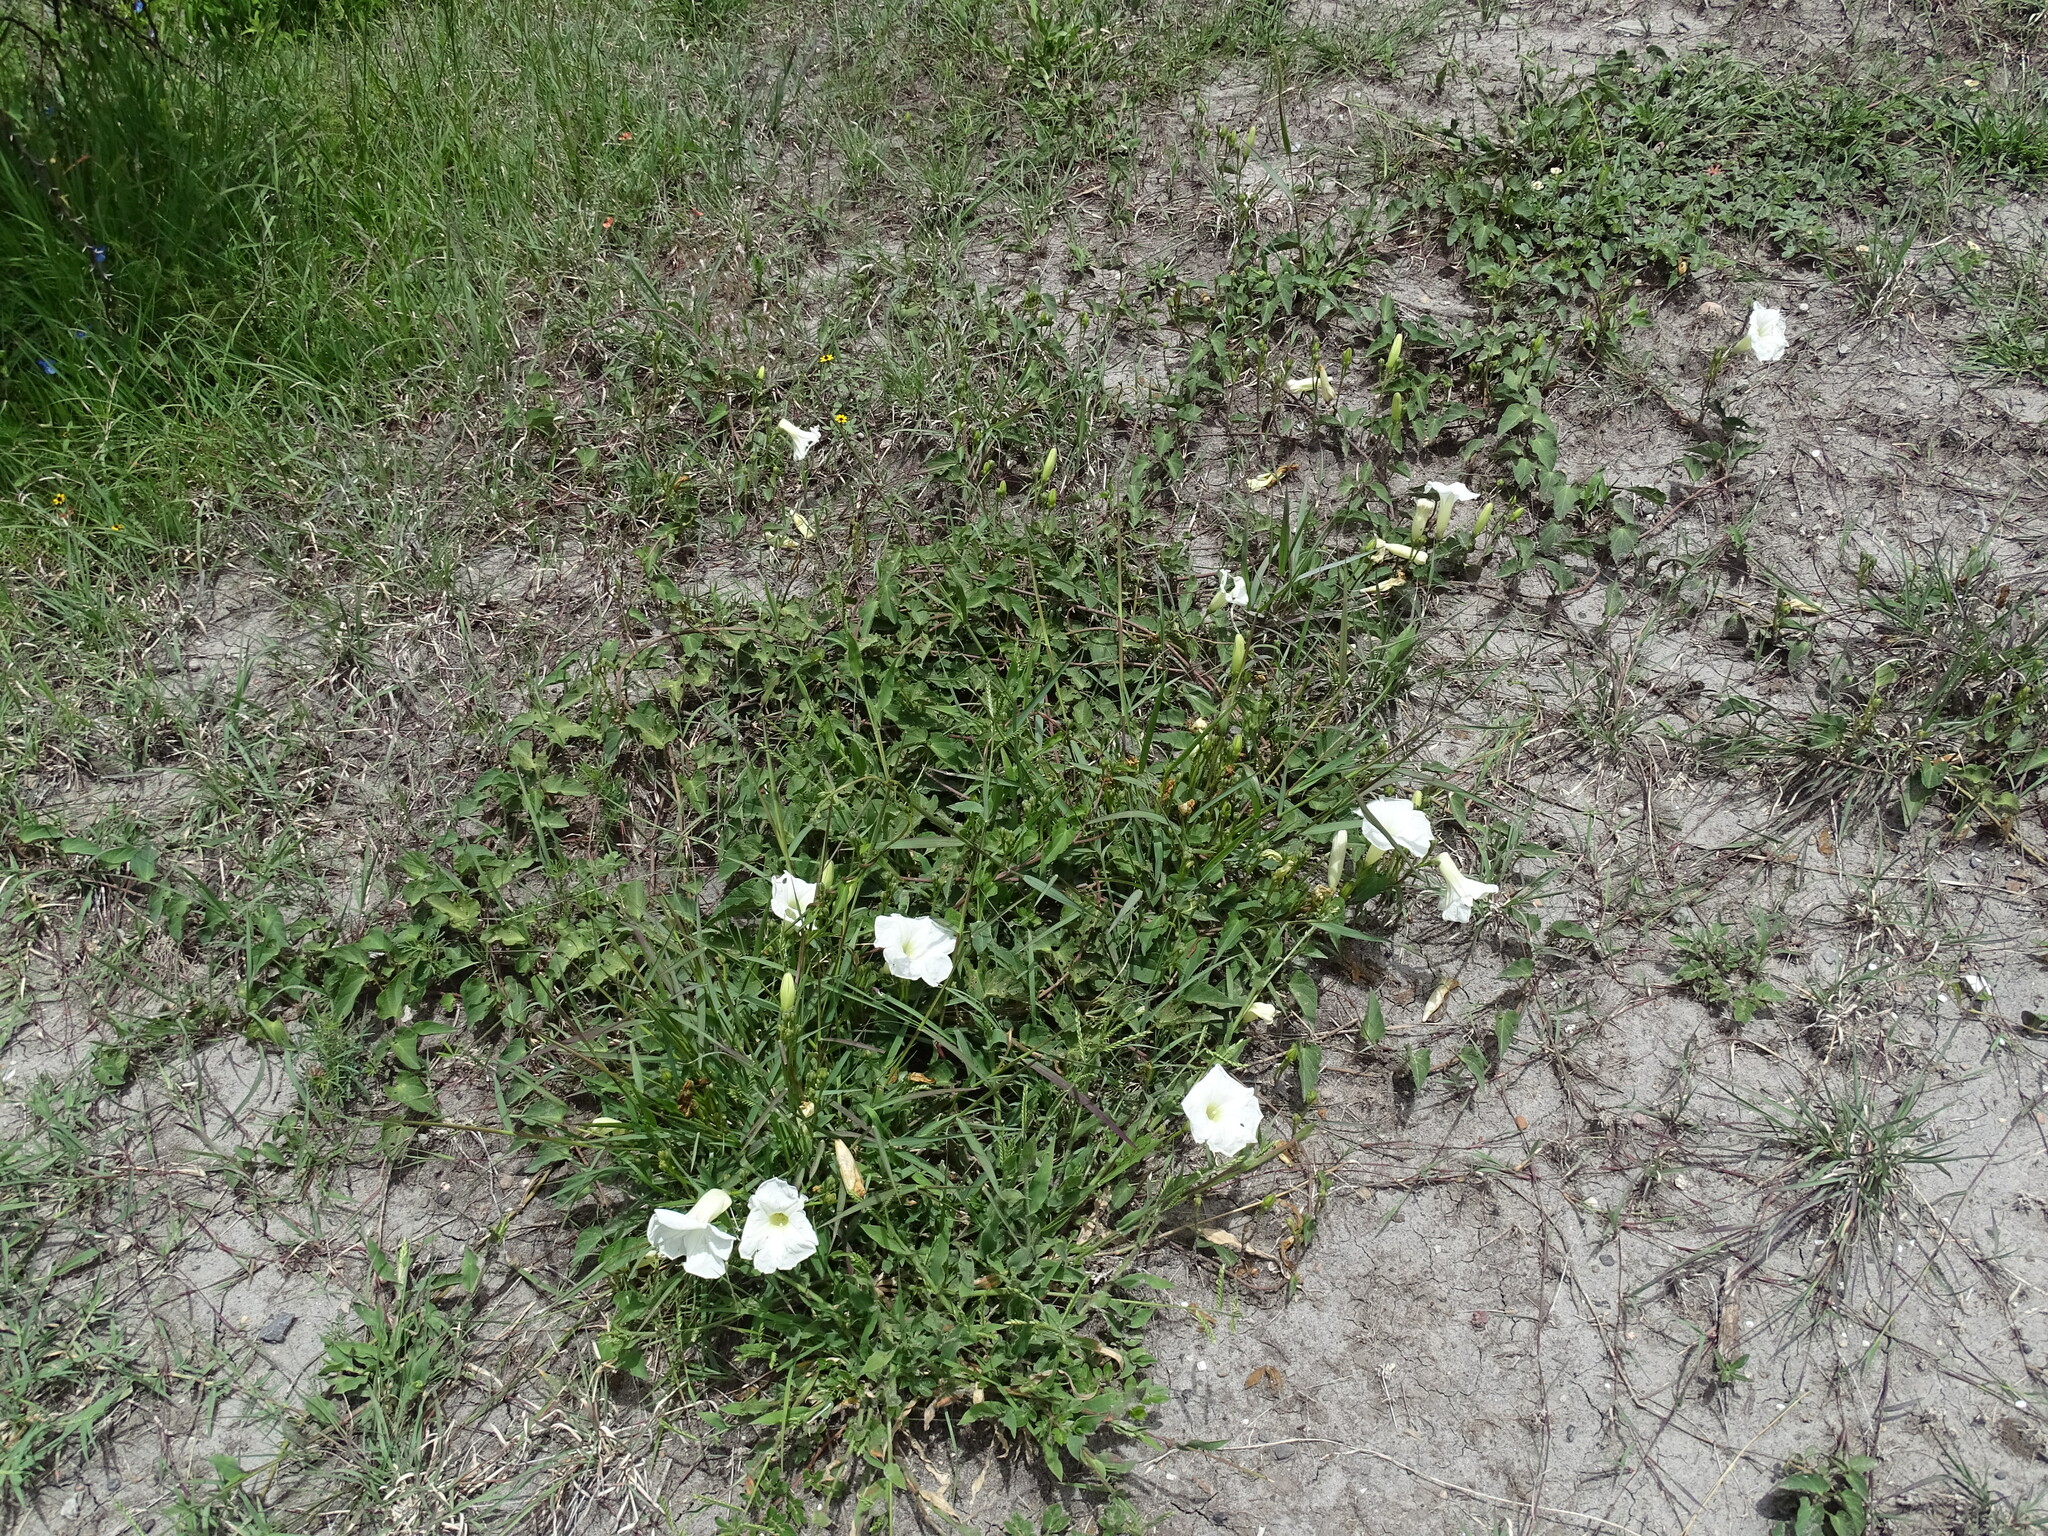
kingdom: Plantae
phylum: Tracheophyta
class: Magnoliopsida
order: Solanales
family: Convolvulaceae
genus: Ipomoea
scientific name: Ipomoea proxima
